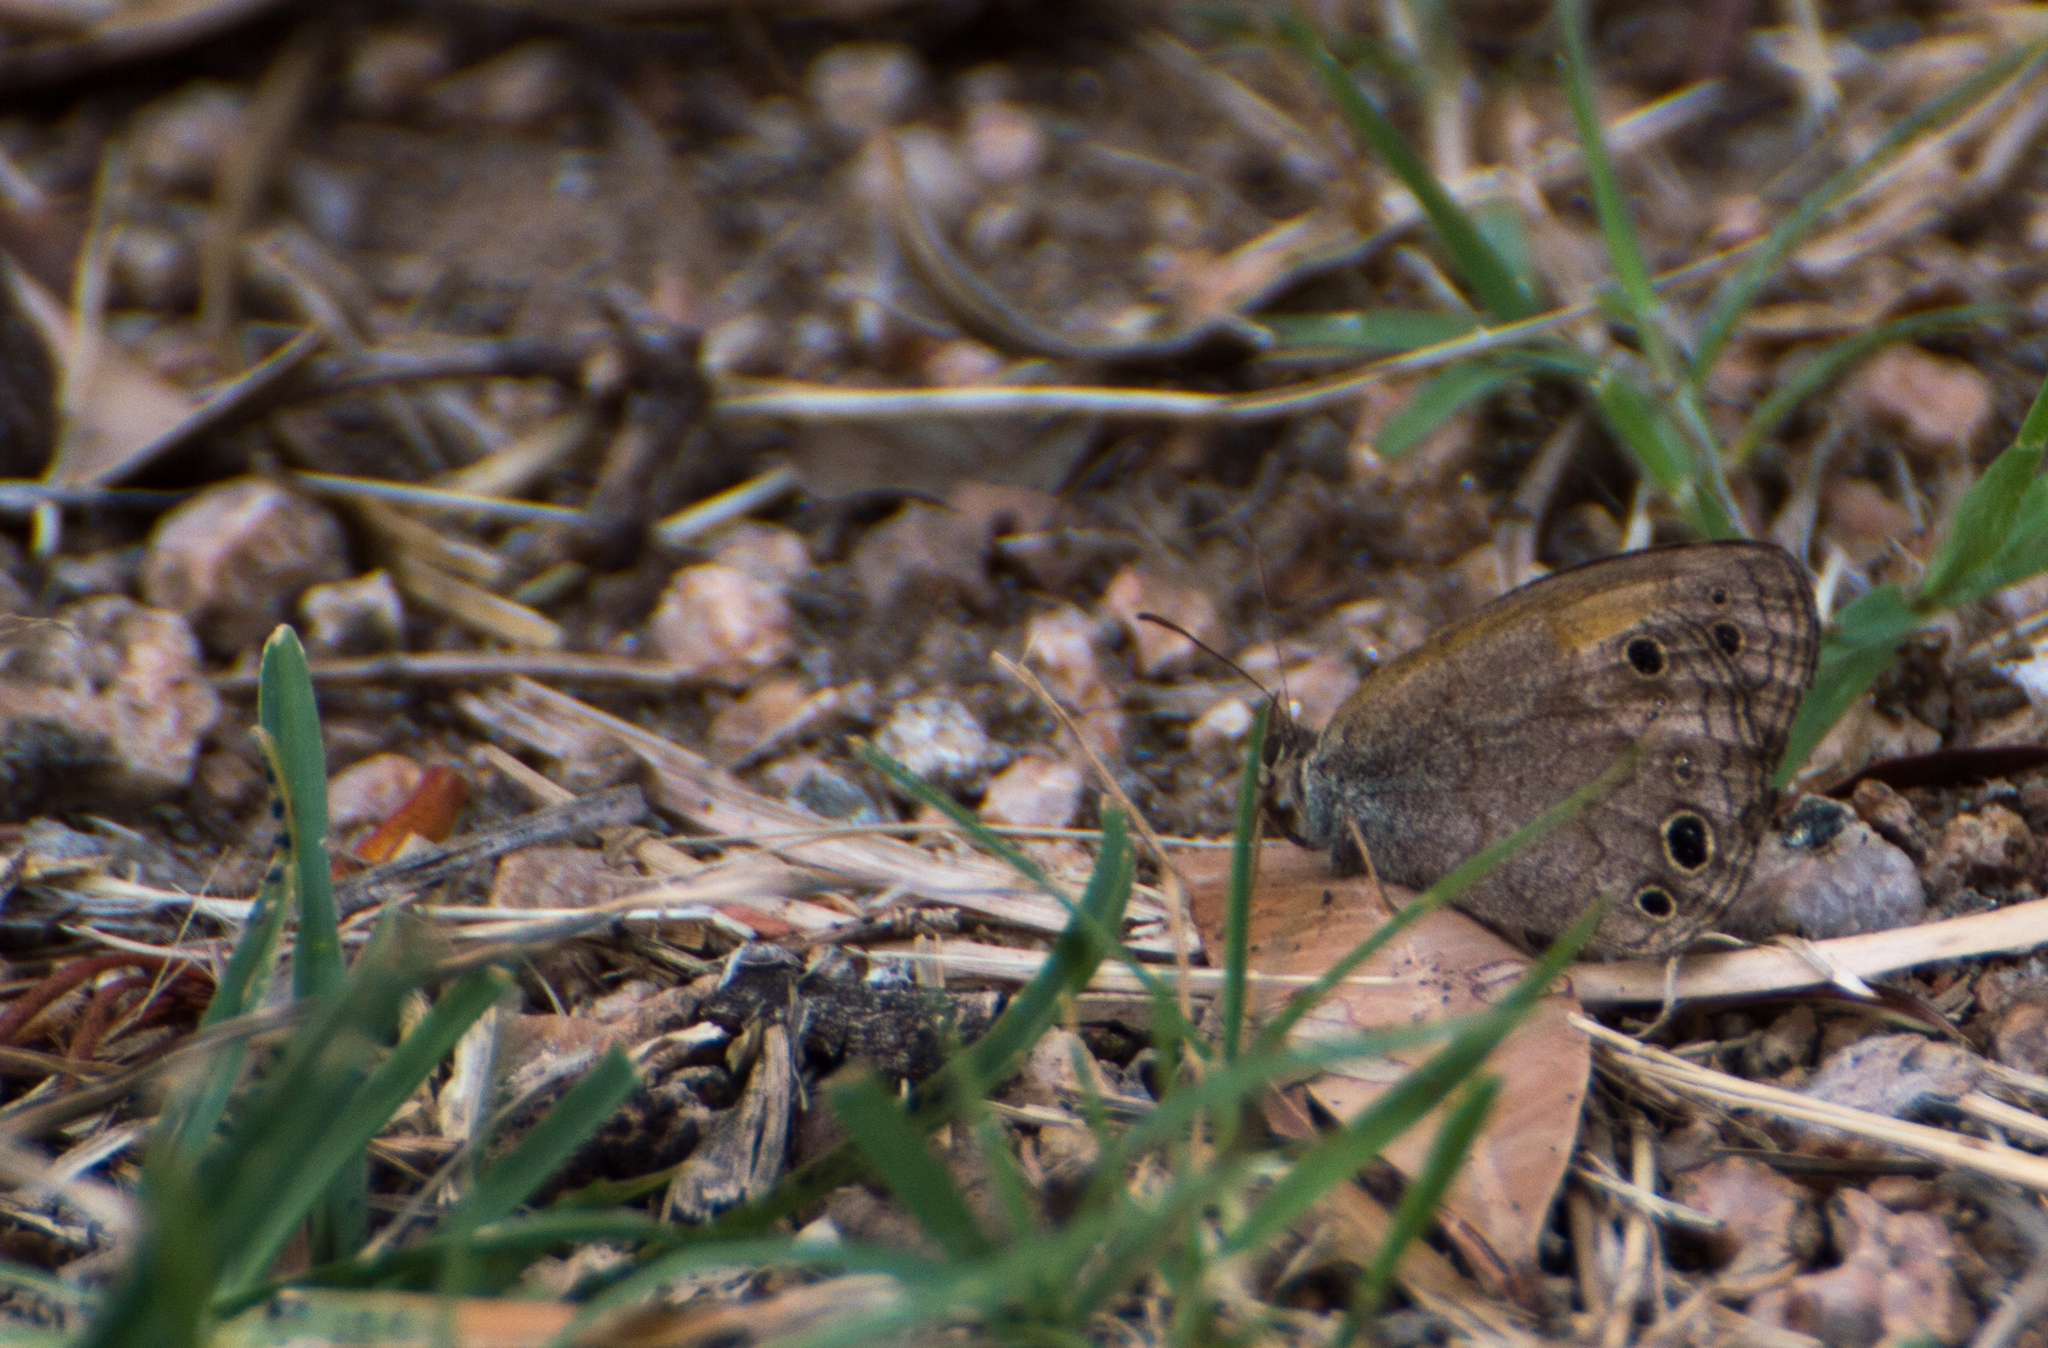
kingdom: Animalia
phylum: Arthropoda
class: Insecta
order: Lepidoptera
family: Nymphalidae
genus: Pharneuptychia
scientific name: Pharneuptychia phares
